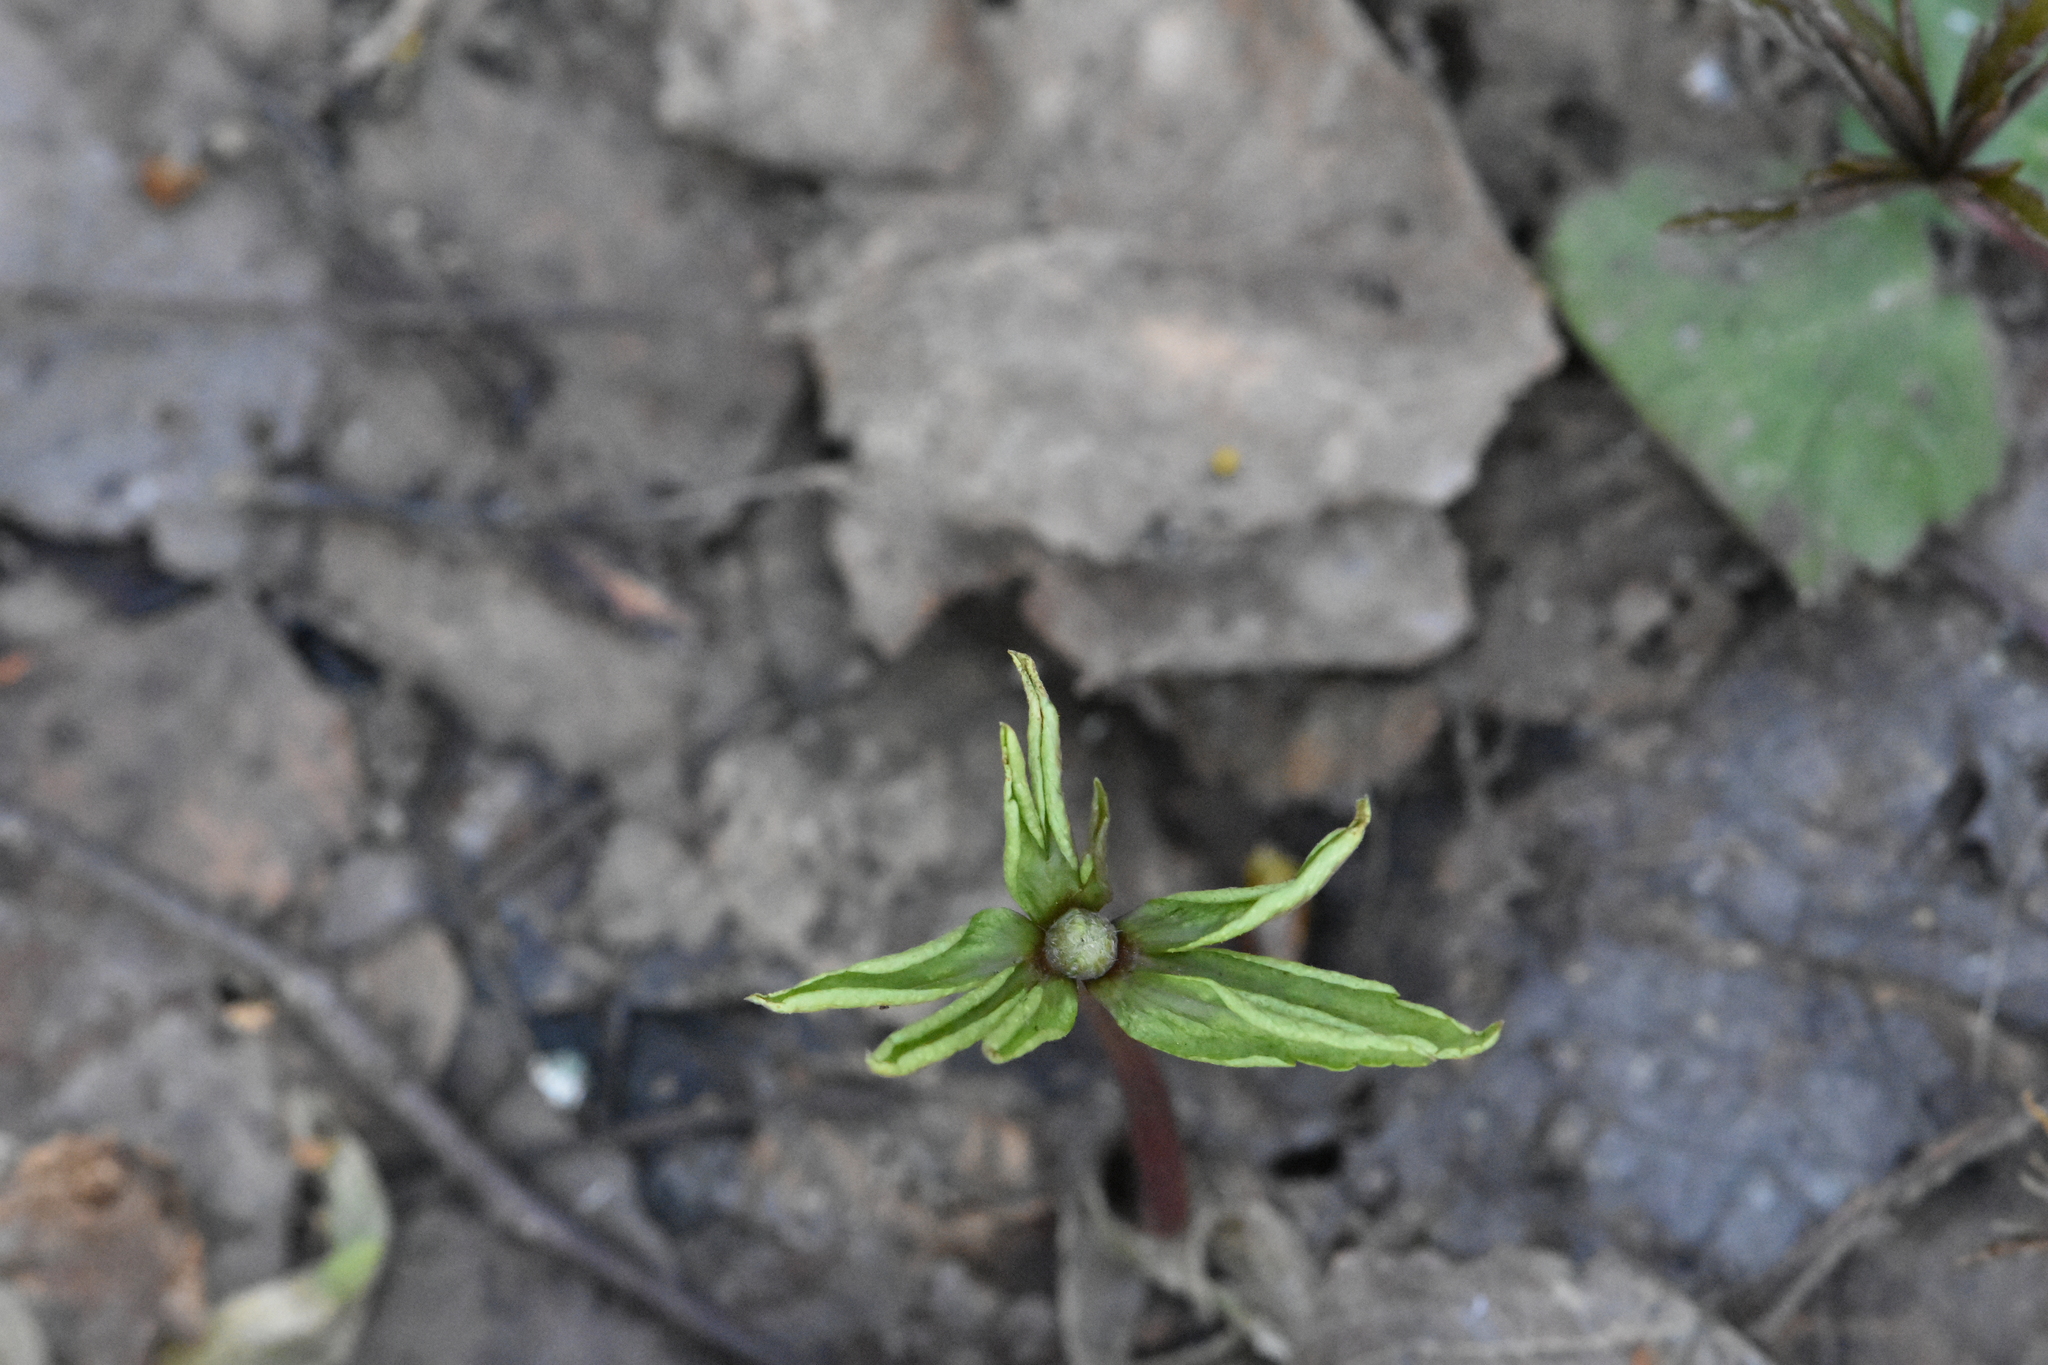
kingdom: Plantae
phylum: Tracheophyta
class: Magnoliopsida
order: Ranunculales
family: Ranunculaceae
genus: Anemone
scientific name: Anemone ranunculoides
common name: Yellow anemone
